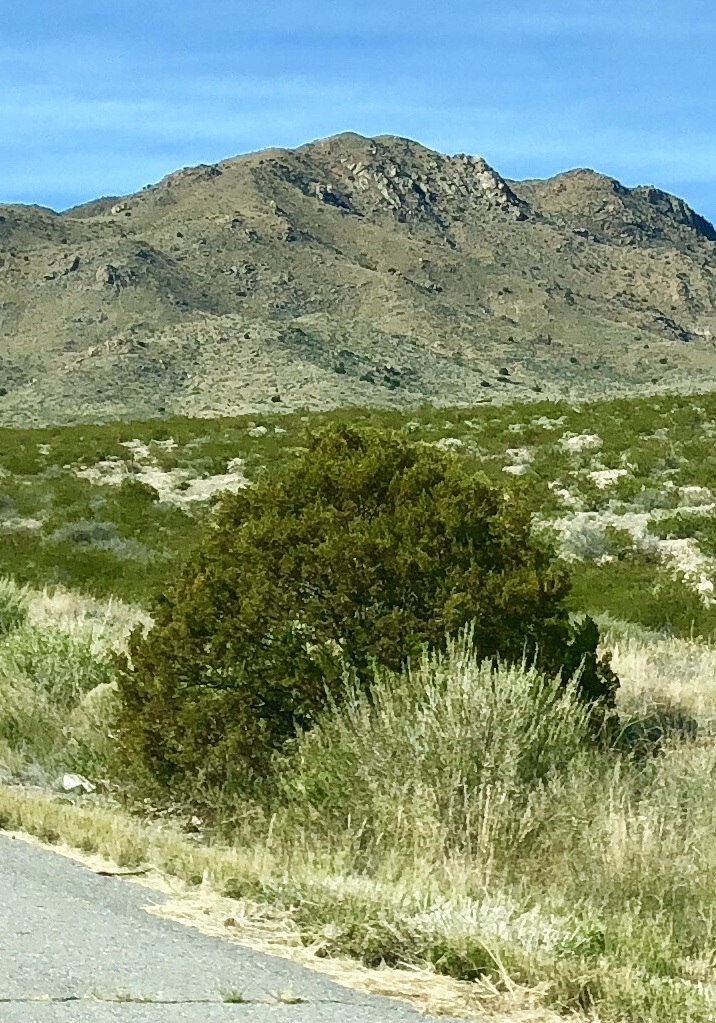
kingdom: Plantae
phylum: Tracheophyta
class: Magnoliopsida
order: Zygophyllales
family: Zygophyllaceae
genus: Larrea
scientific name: Larrea tridentata
